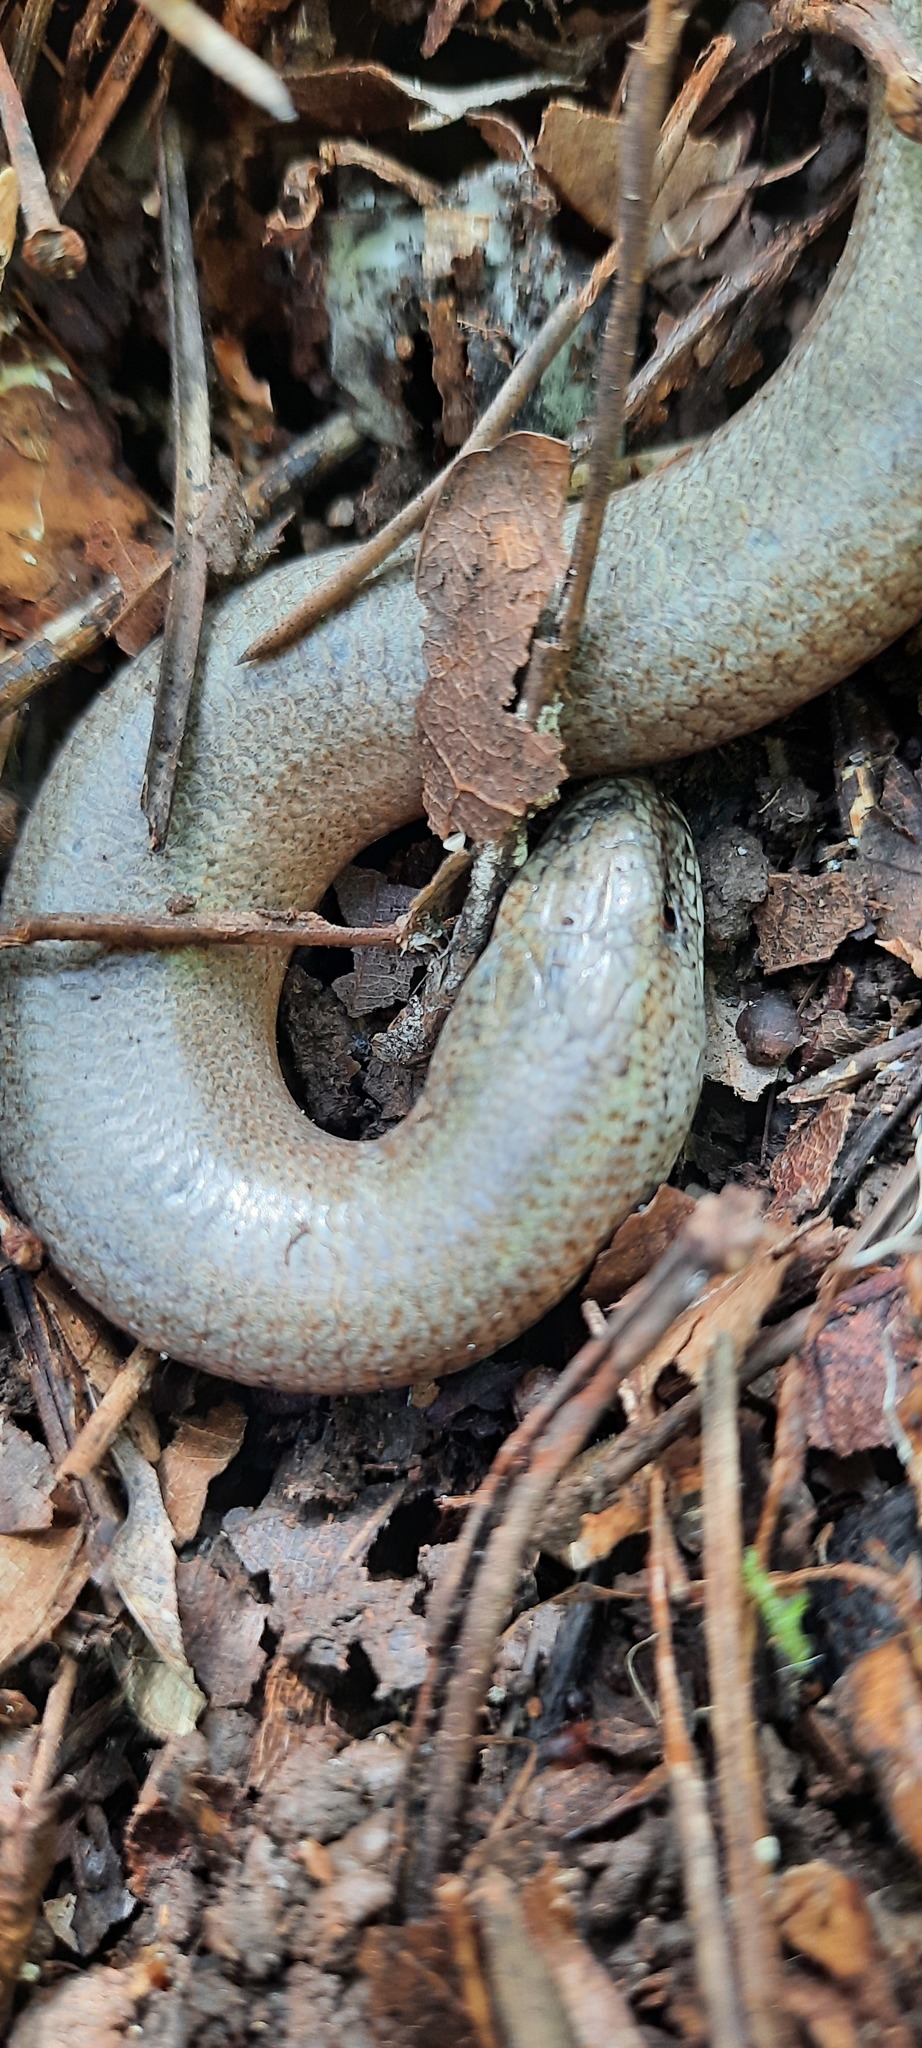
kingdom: Animalia
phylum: Chordata
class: Squamata
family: Anguidae
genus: Anguis
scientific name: Anguis fragilis
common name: Slow worm
